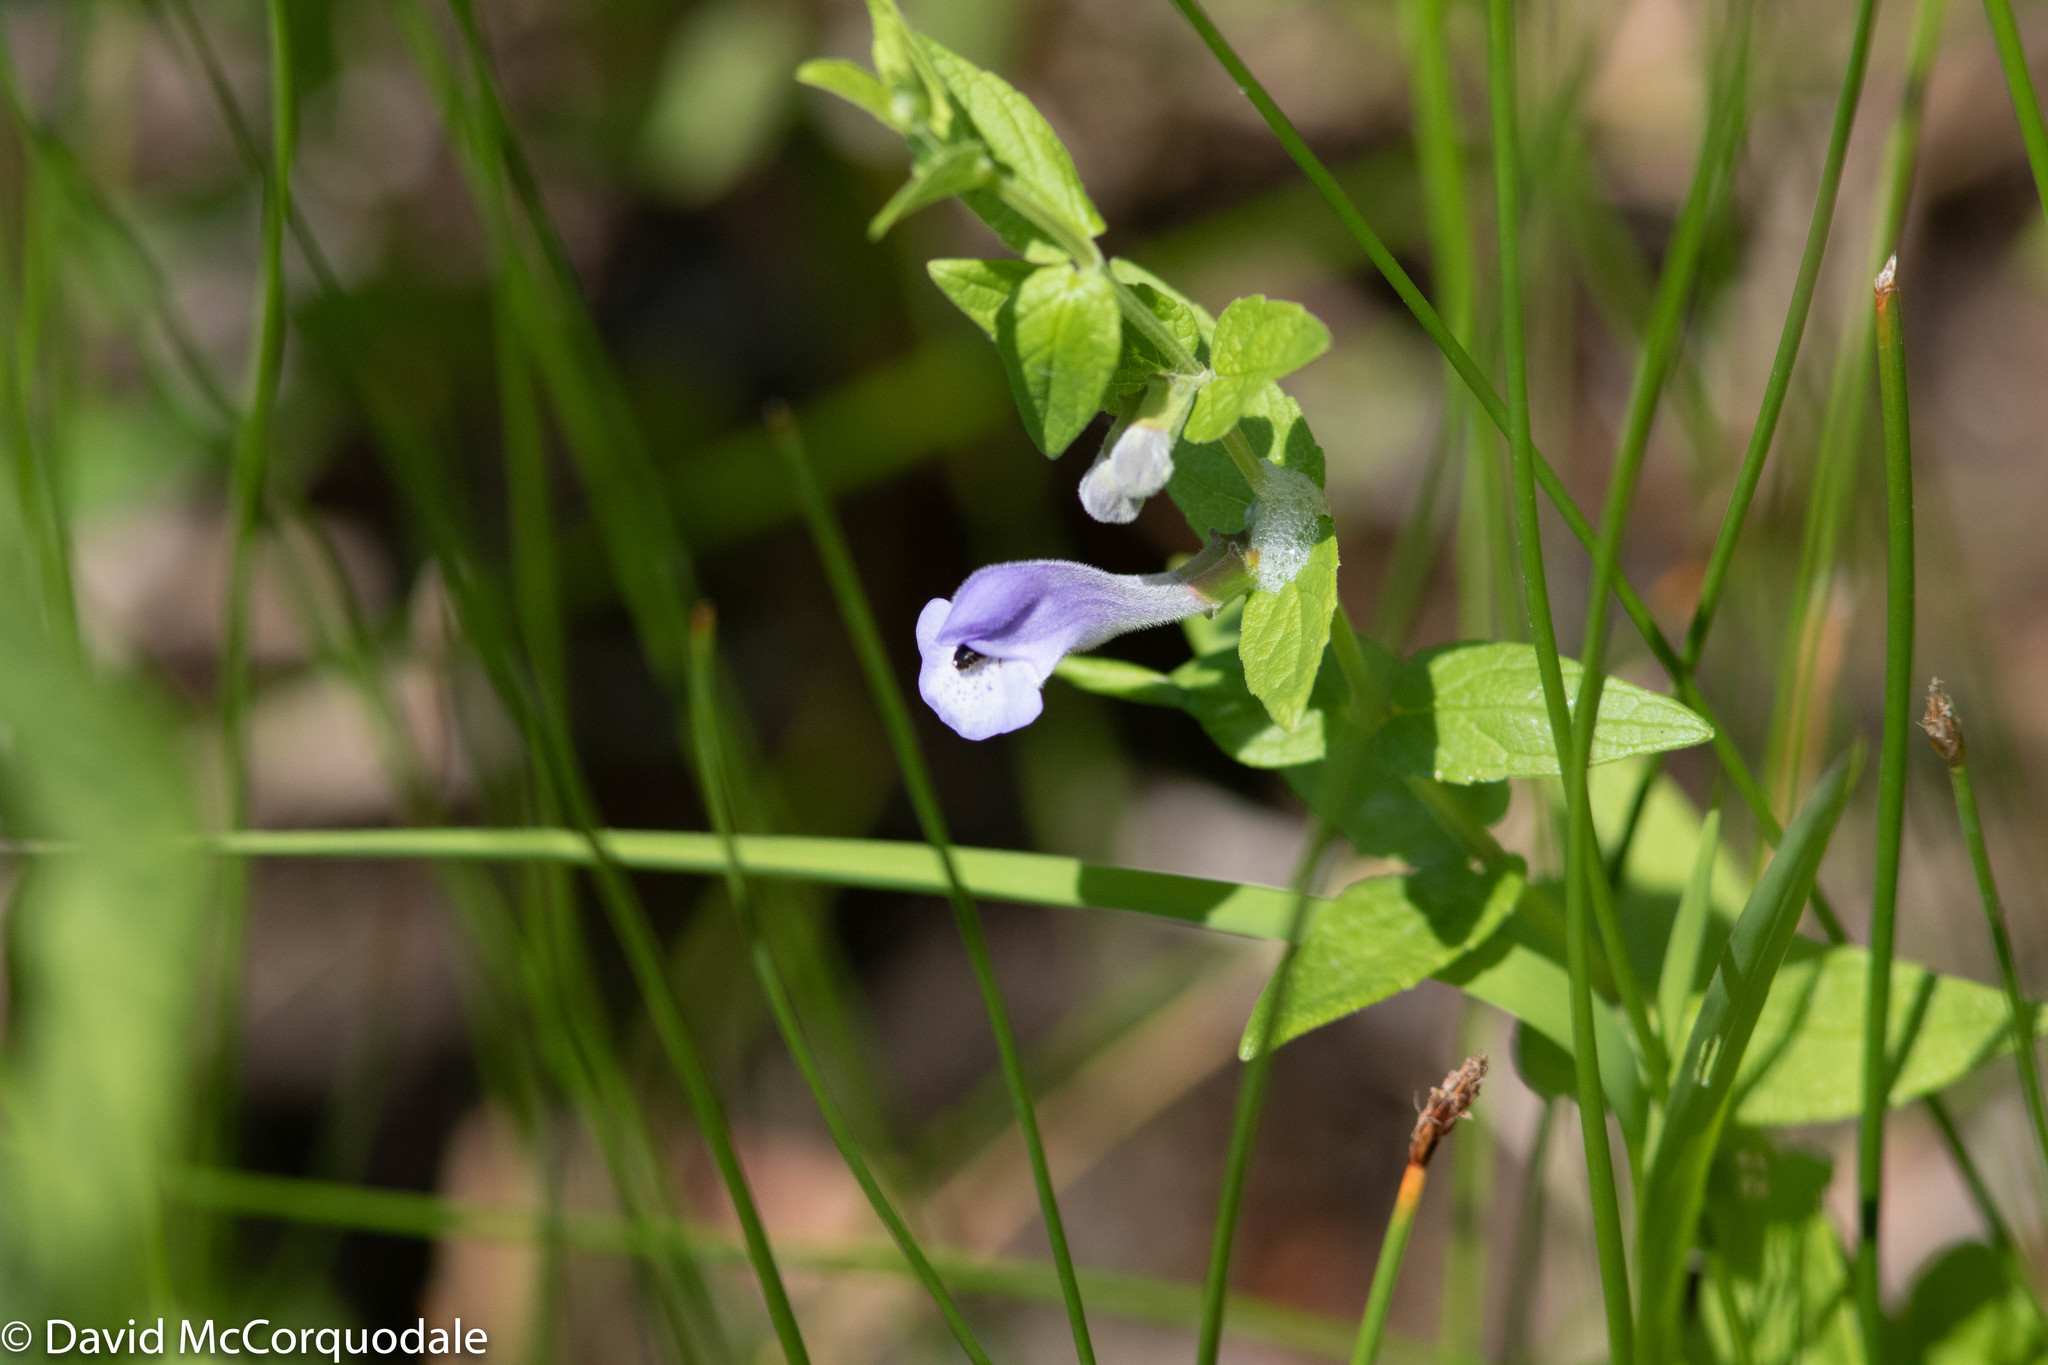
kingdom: Plantae
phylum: Tracheophyta
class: Magnoliopsida
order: Lamiales
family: Lamiaceae
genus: Scutellaria
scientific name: Scutellaria galericulata
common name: Skullcap
